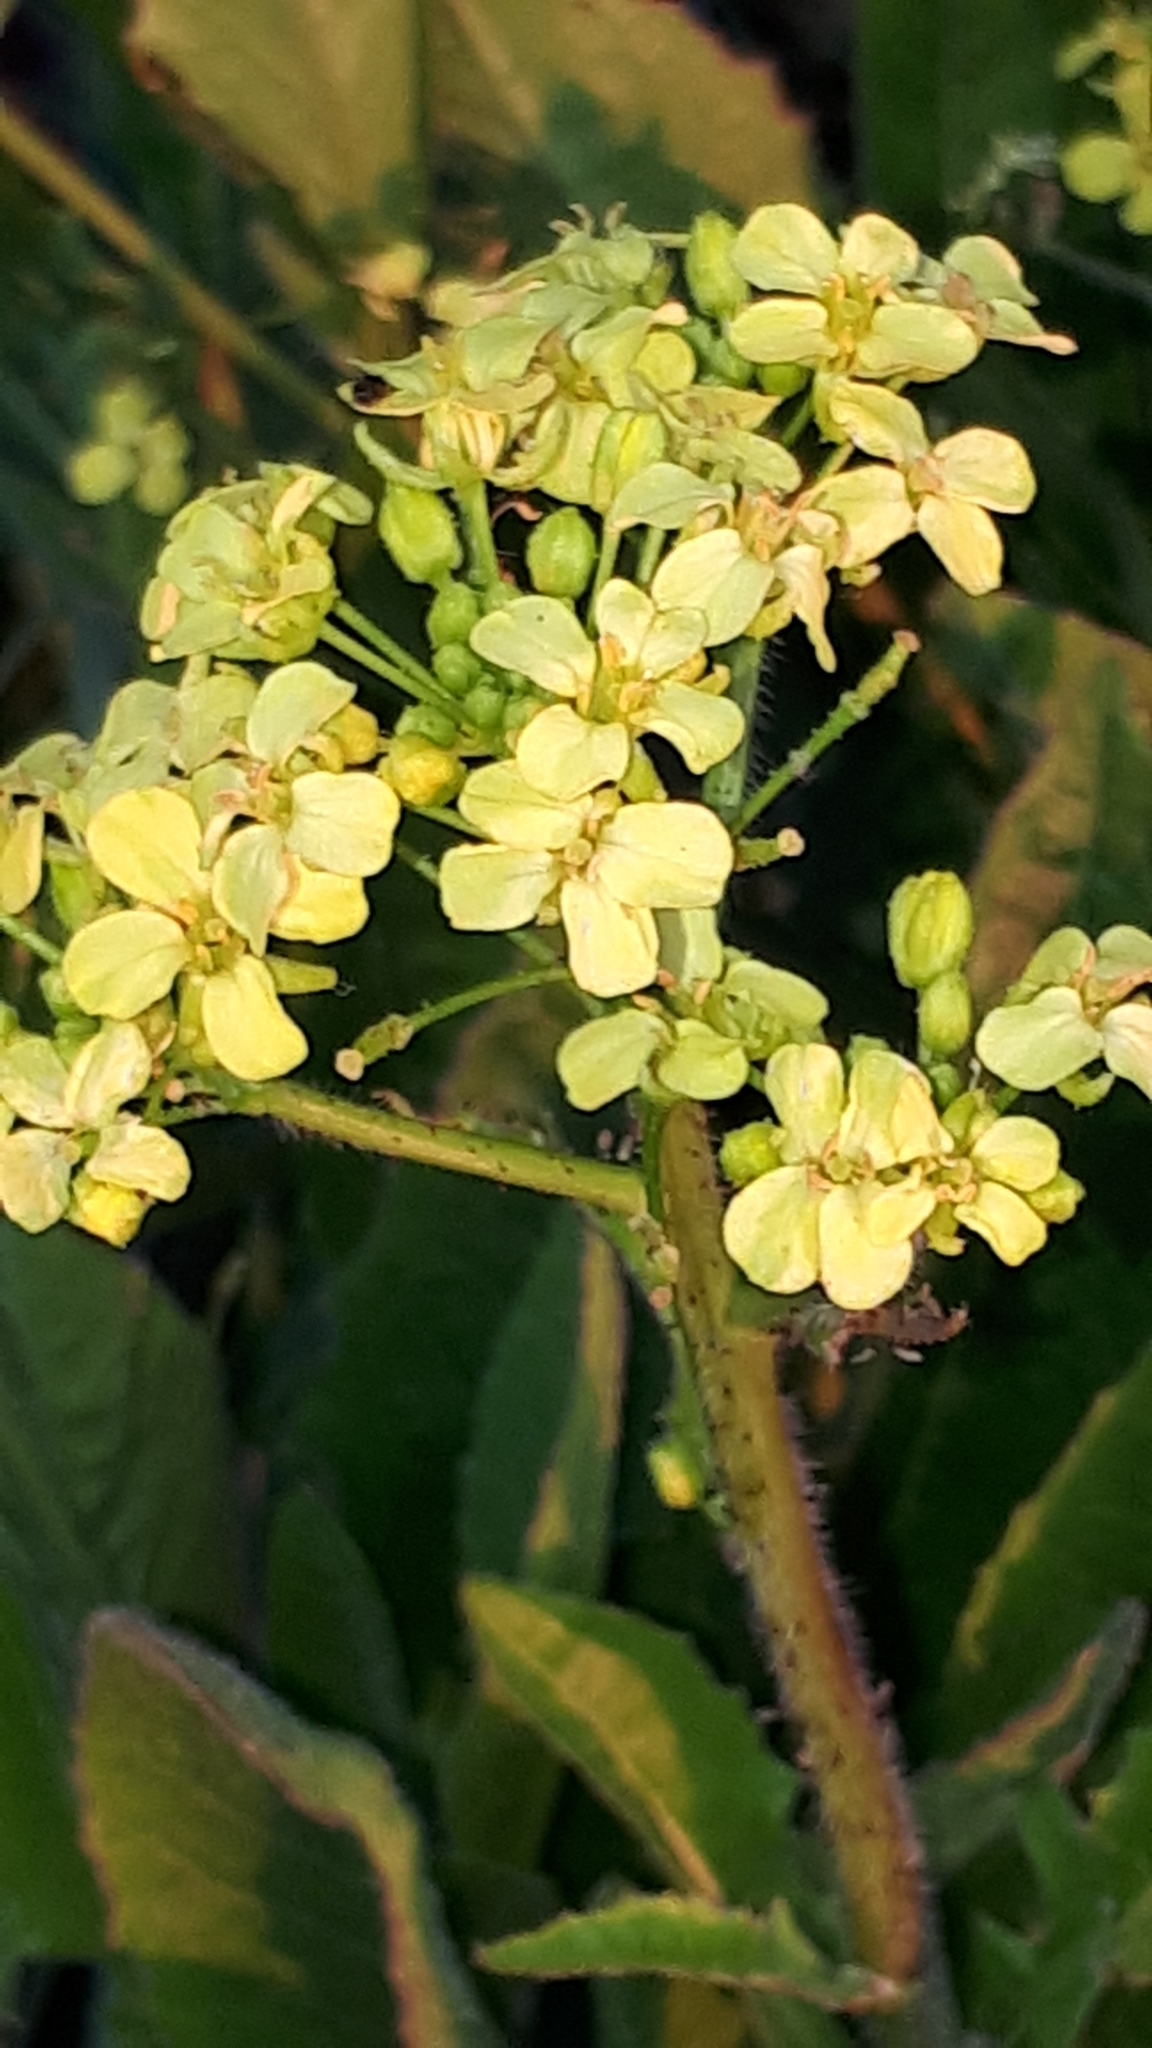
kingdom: Plantae
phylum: Tracheophyta
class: Magnoliopsida
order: Brassicales
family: Brassicaceae
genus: Bunias
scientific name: Bunias orientalis
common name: Warty-cabbage
